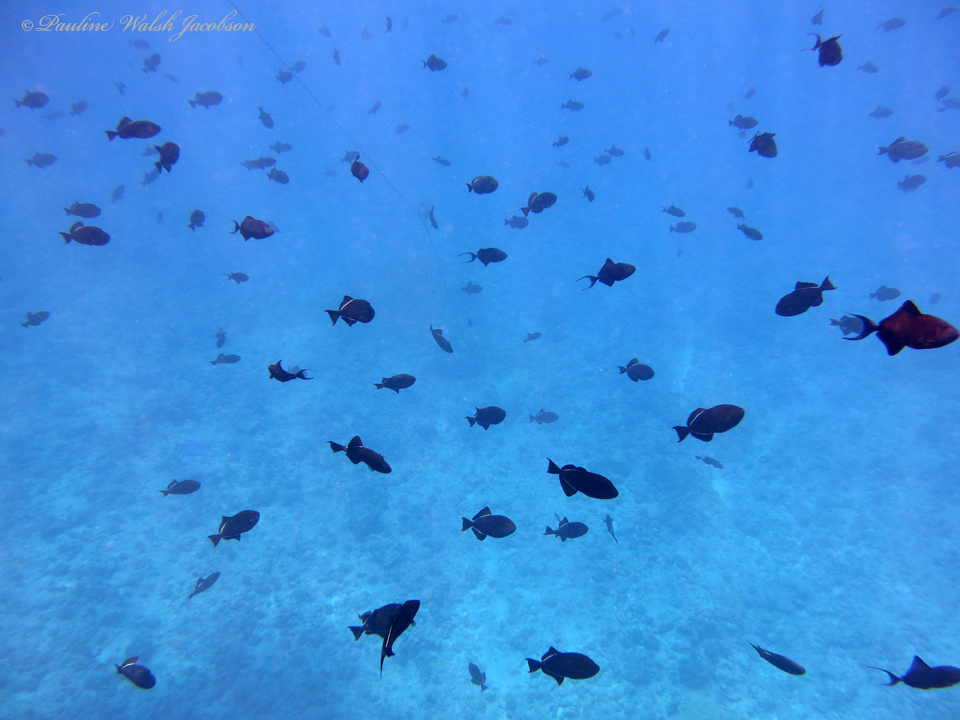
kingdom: Animalia
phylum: Chordata
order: Tetraodontiformes
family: Balistidae
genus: Melichthys
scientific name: Melichthys niger
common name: Black durgon
